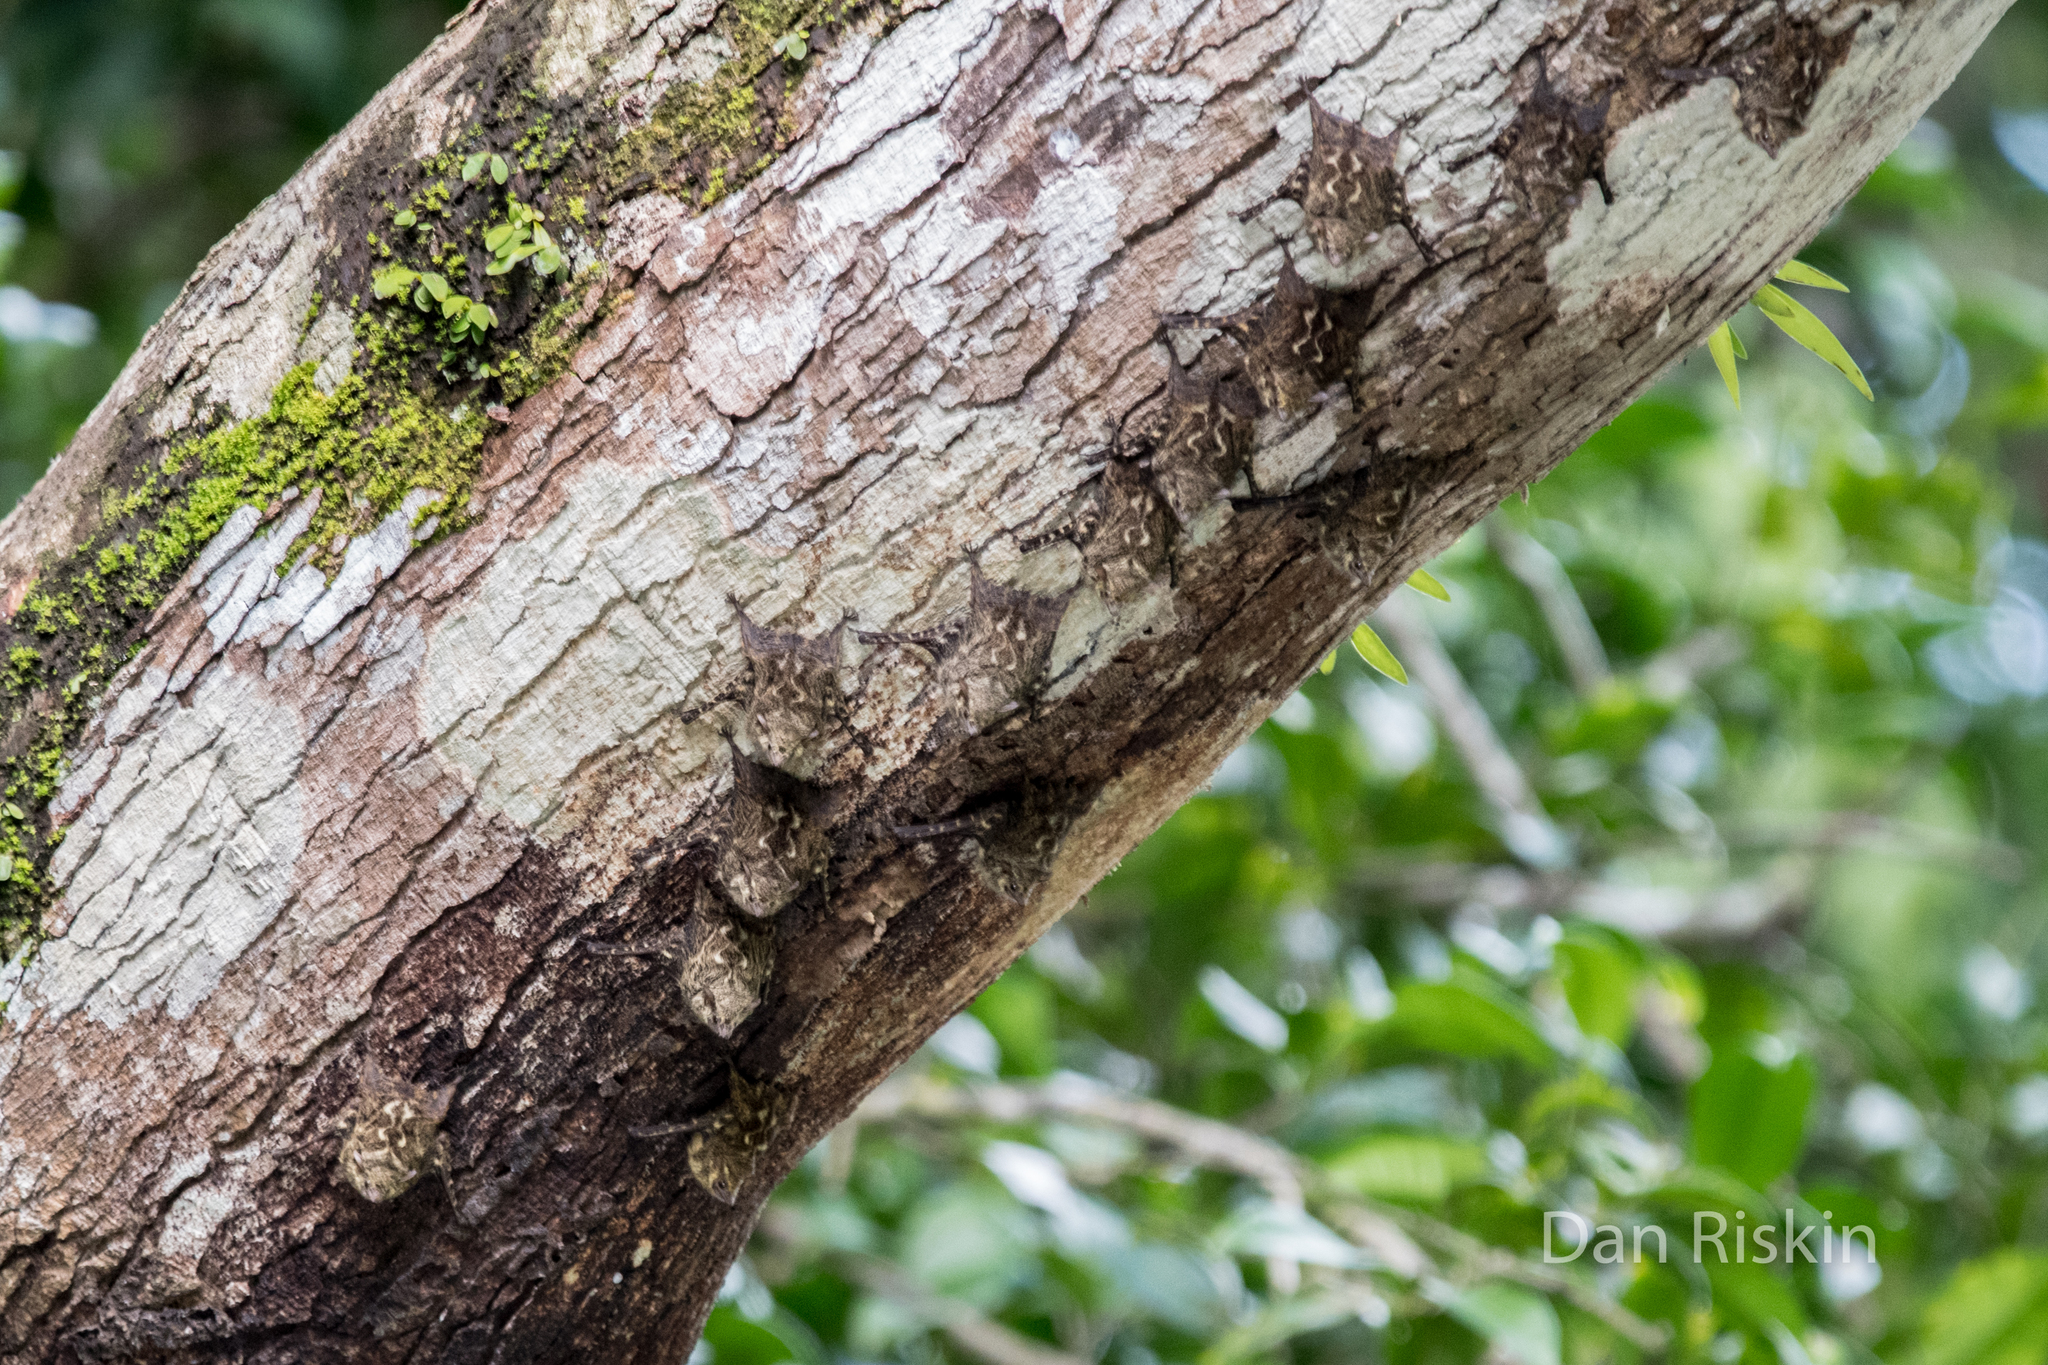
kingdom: Animalia
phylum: Chordata
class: Mammalia
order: Chiroptera
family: Emballonuridae
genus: Rhynchonycteris
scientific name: Rhynchonycteris naso
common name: Proboscis bat
